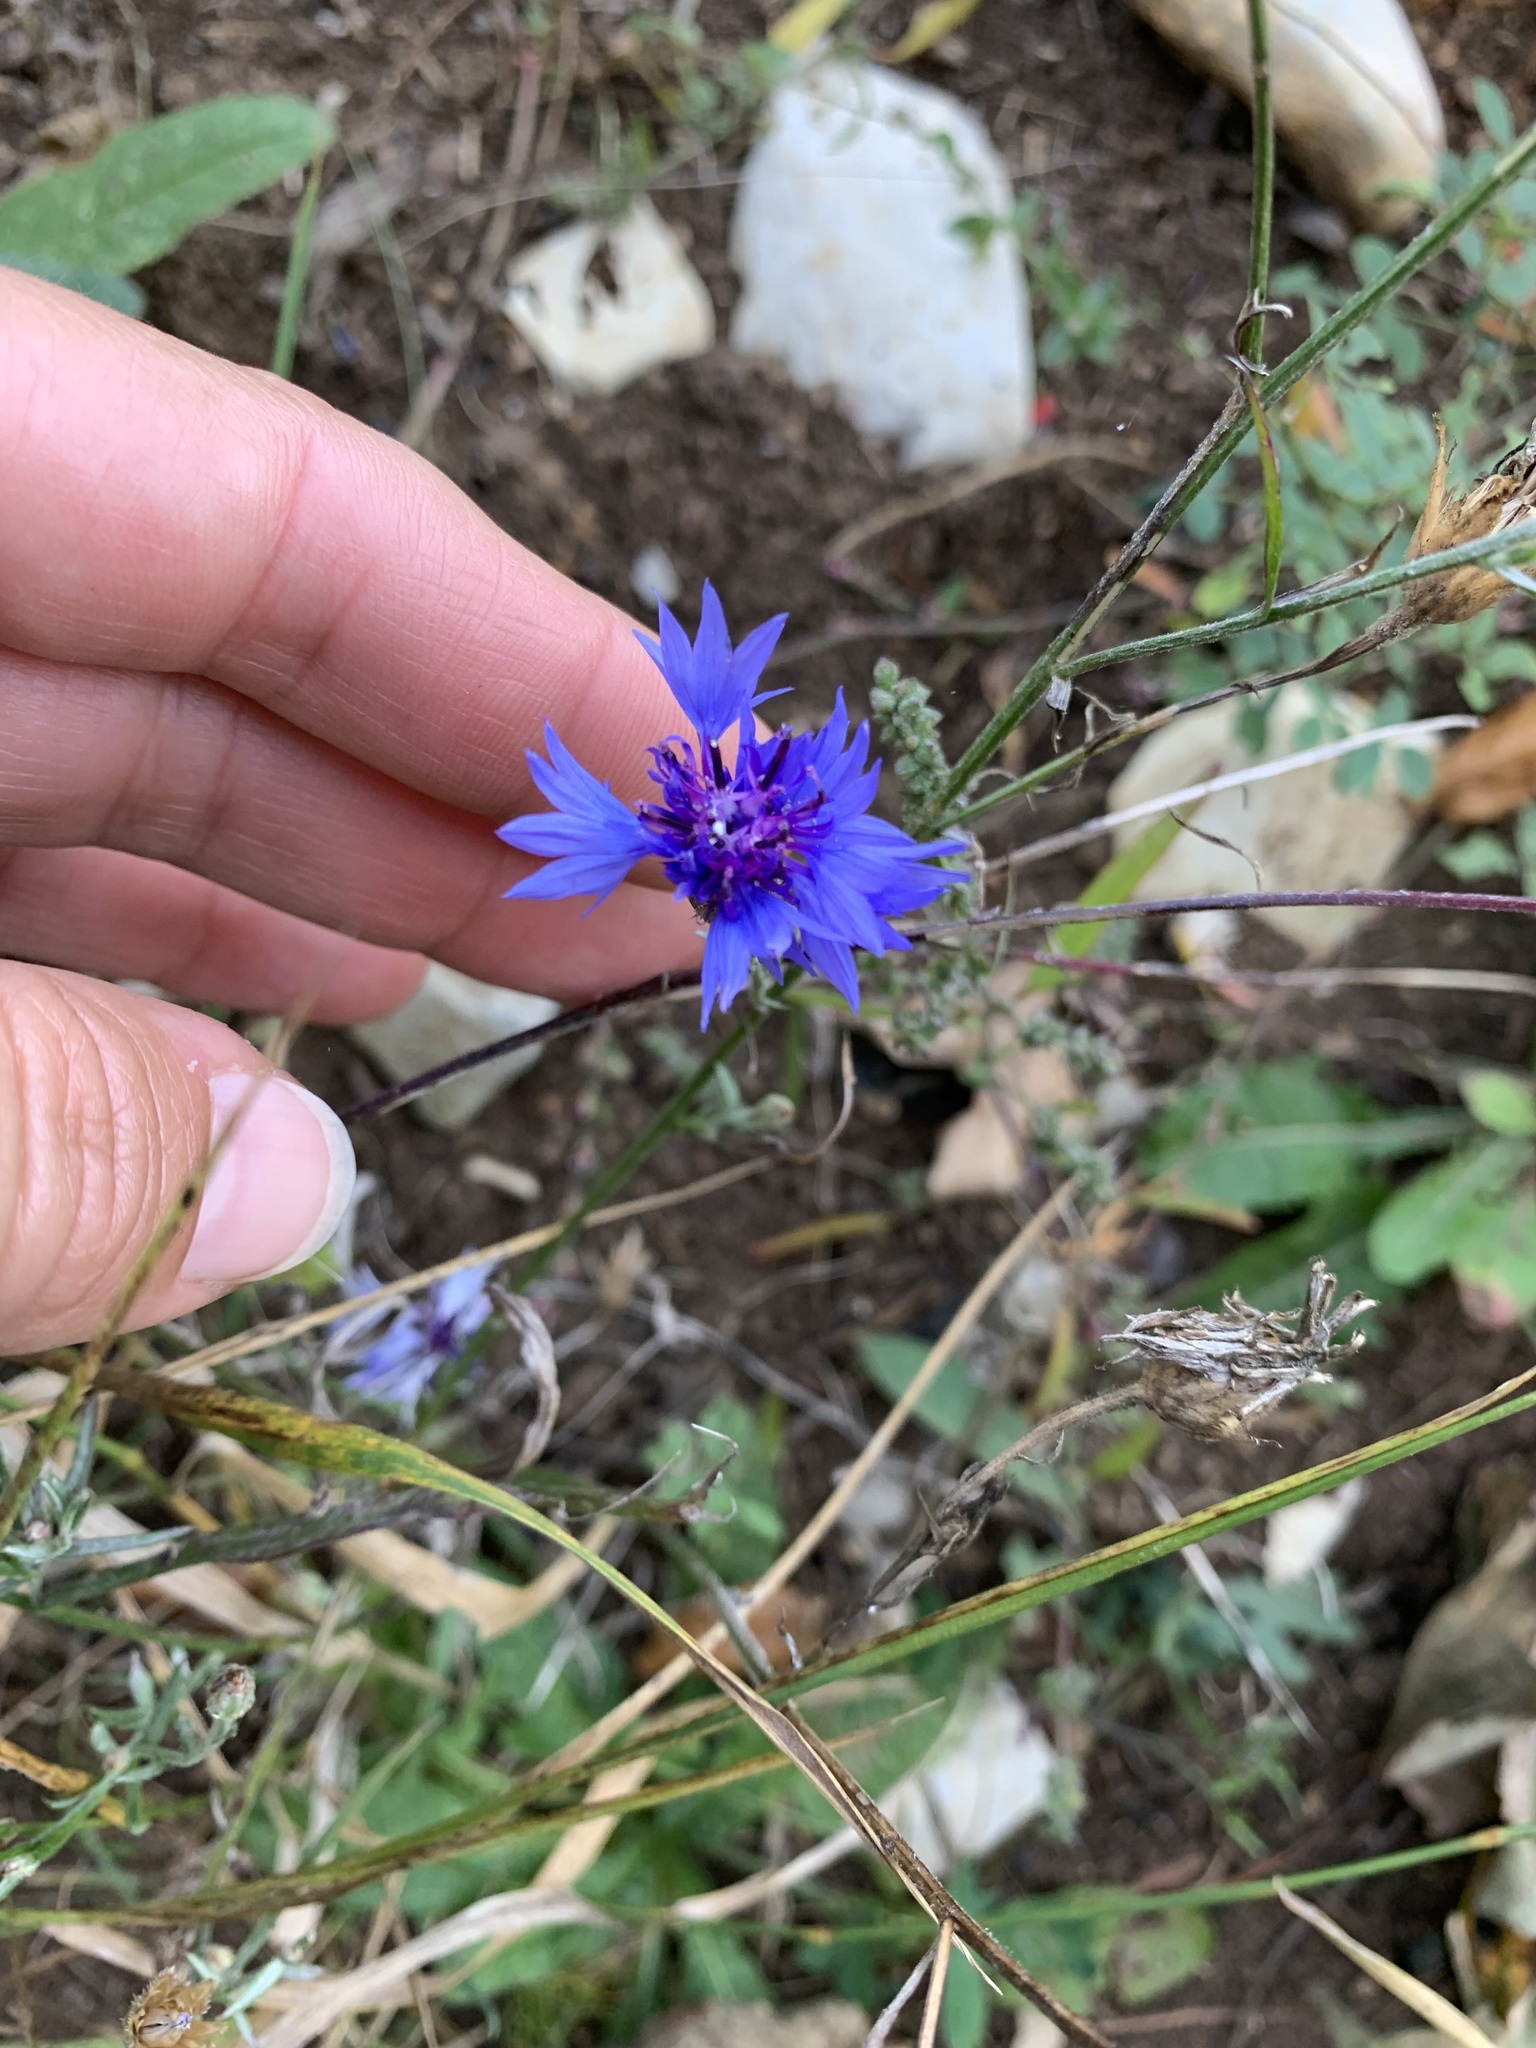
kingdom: Plantae
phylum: Tracheophyta
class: Magnoliopsida
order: Asterales
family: Asteraceae
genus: Centaurea
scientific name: Centaurea cyanus
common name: Cornflower
